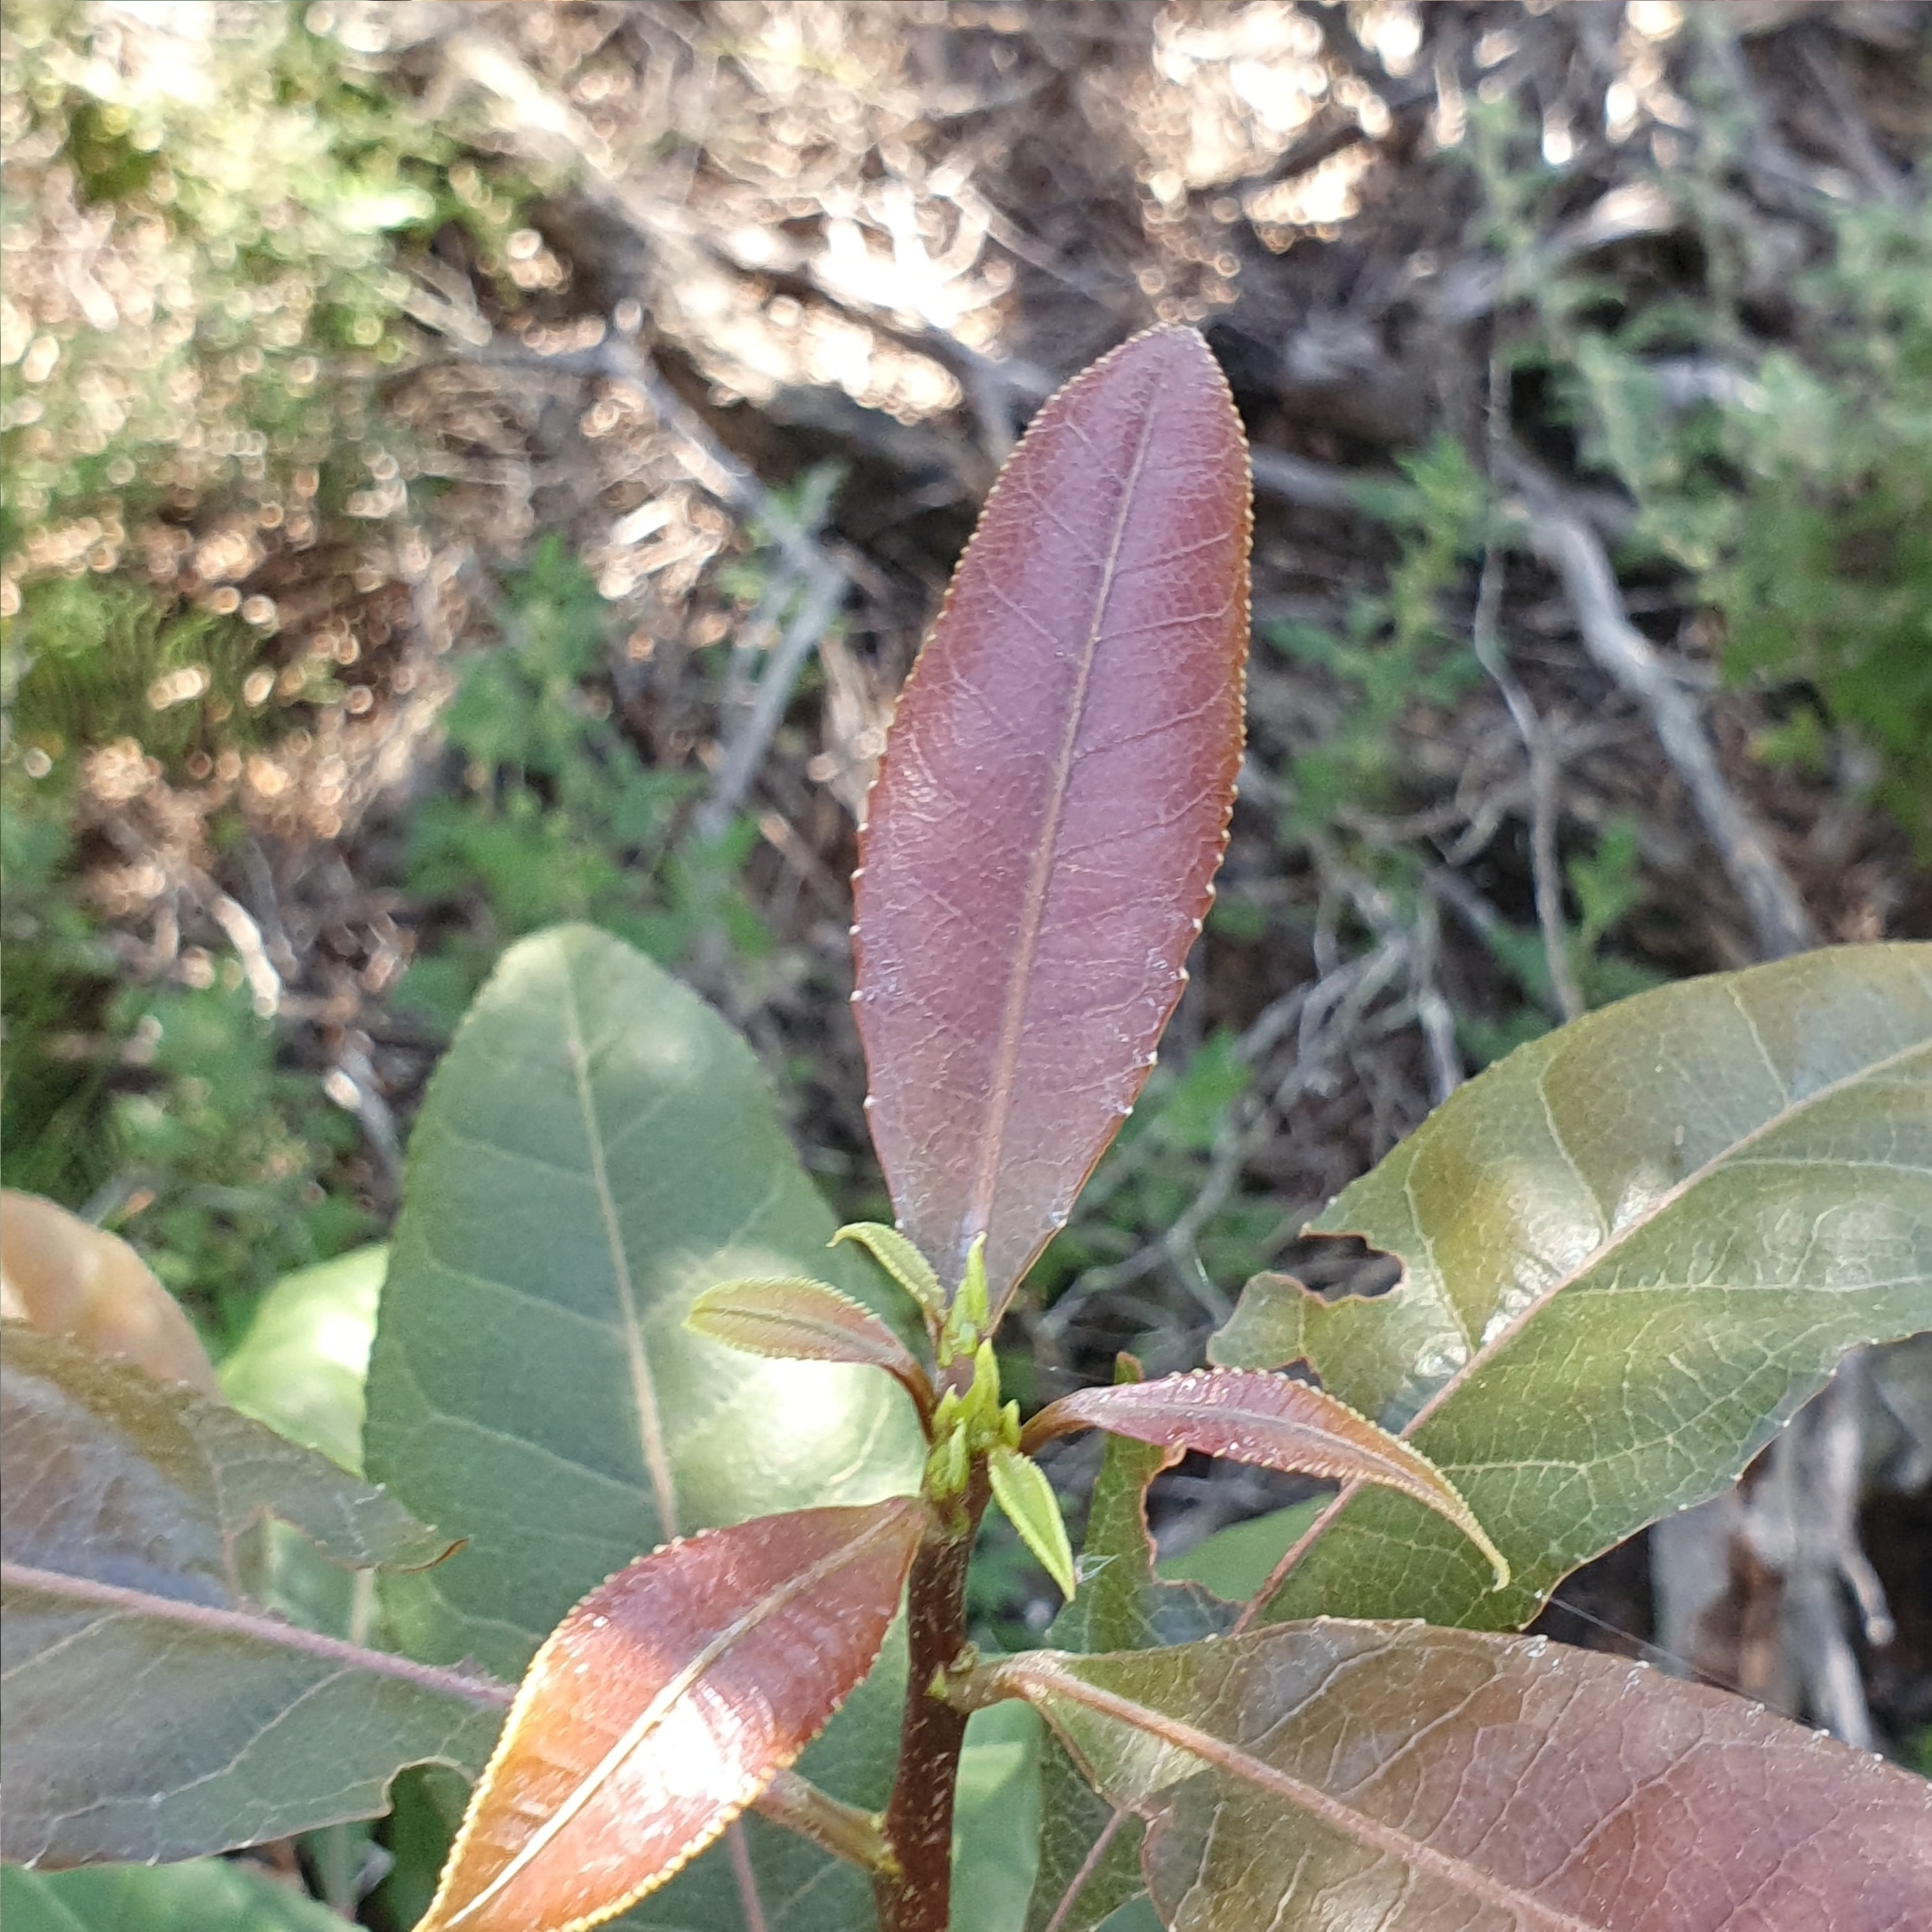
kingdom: Plantae
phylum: Tracheophyta
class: Magnoliopsida
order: Oxalidales
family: Elaeocarpaceae
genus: Elaeocarpus
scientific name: Elaeocarpus reticulatus
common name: Ash quandong
